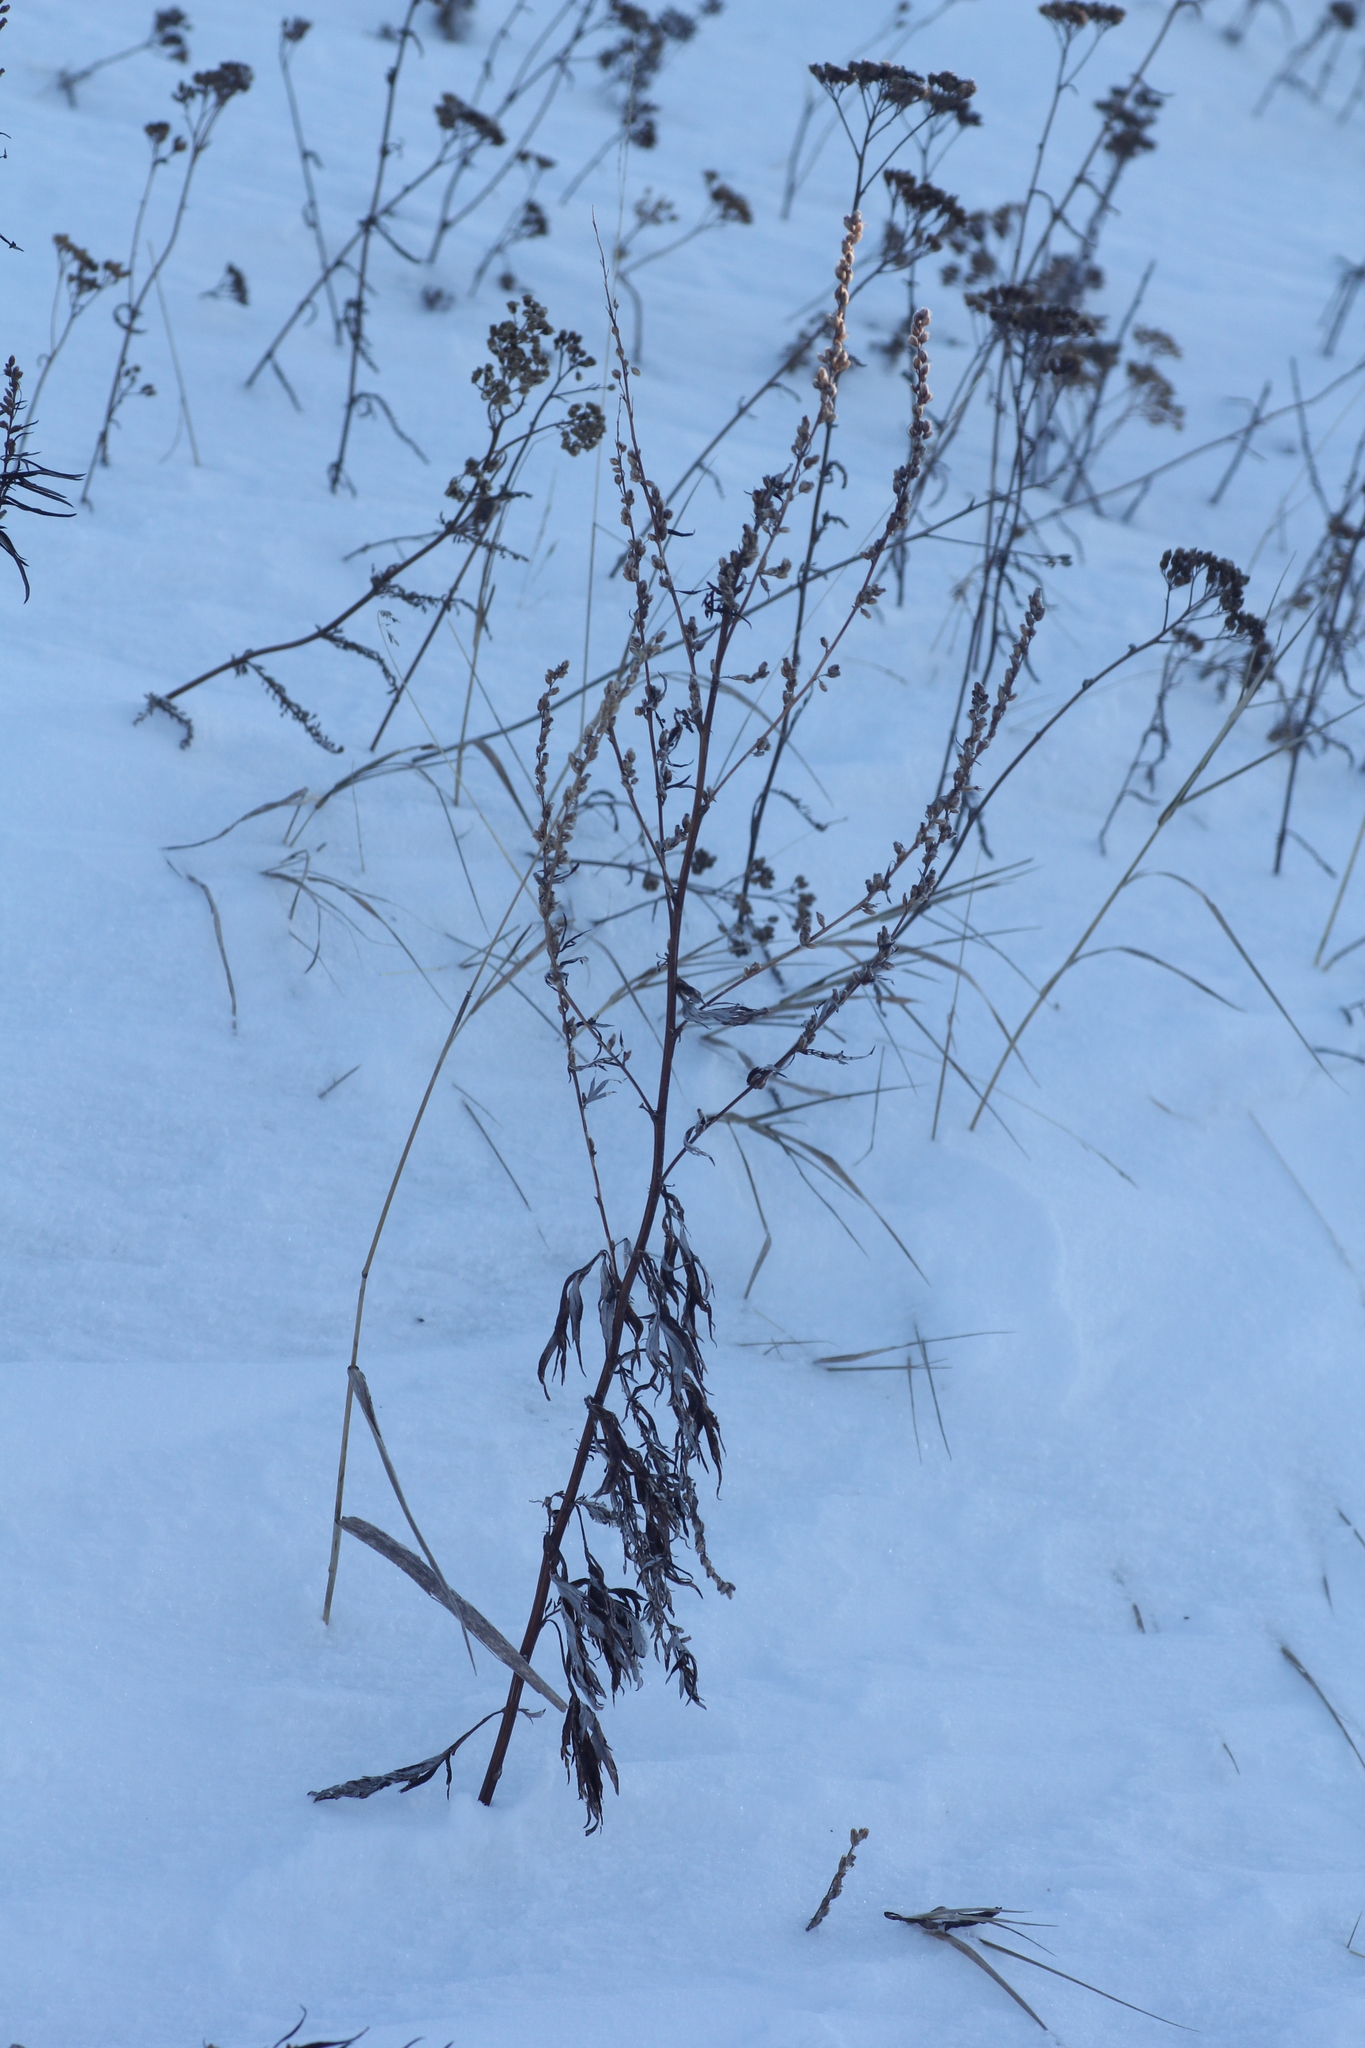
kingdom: Plantae
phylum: Tracheophyta
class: Magnoliopsida
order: Asterales
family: Asteraceae
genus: Artemisia
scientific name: Artemisia vulgaris
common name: Mugwort
